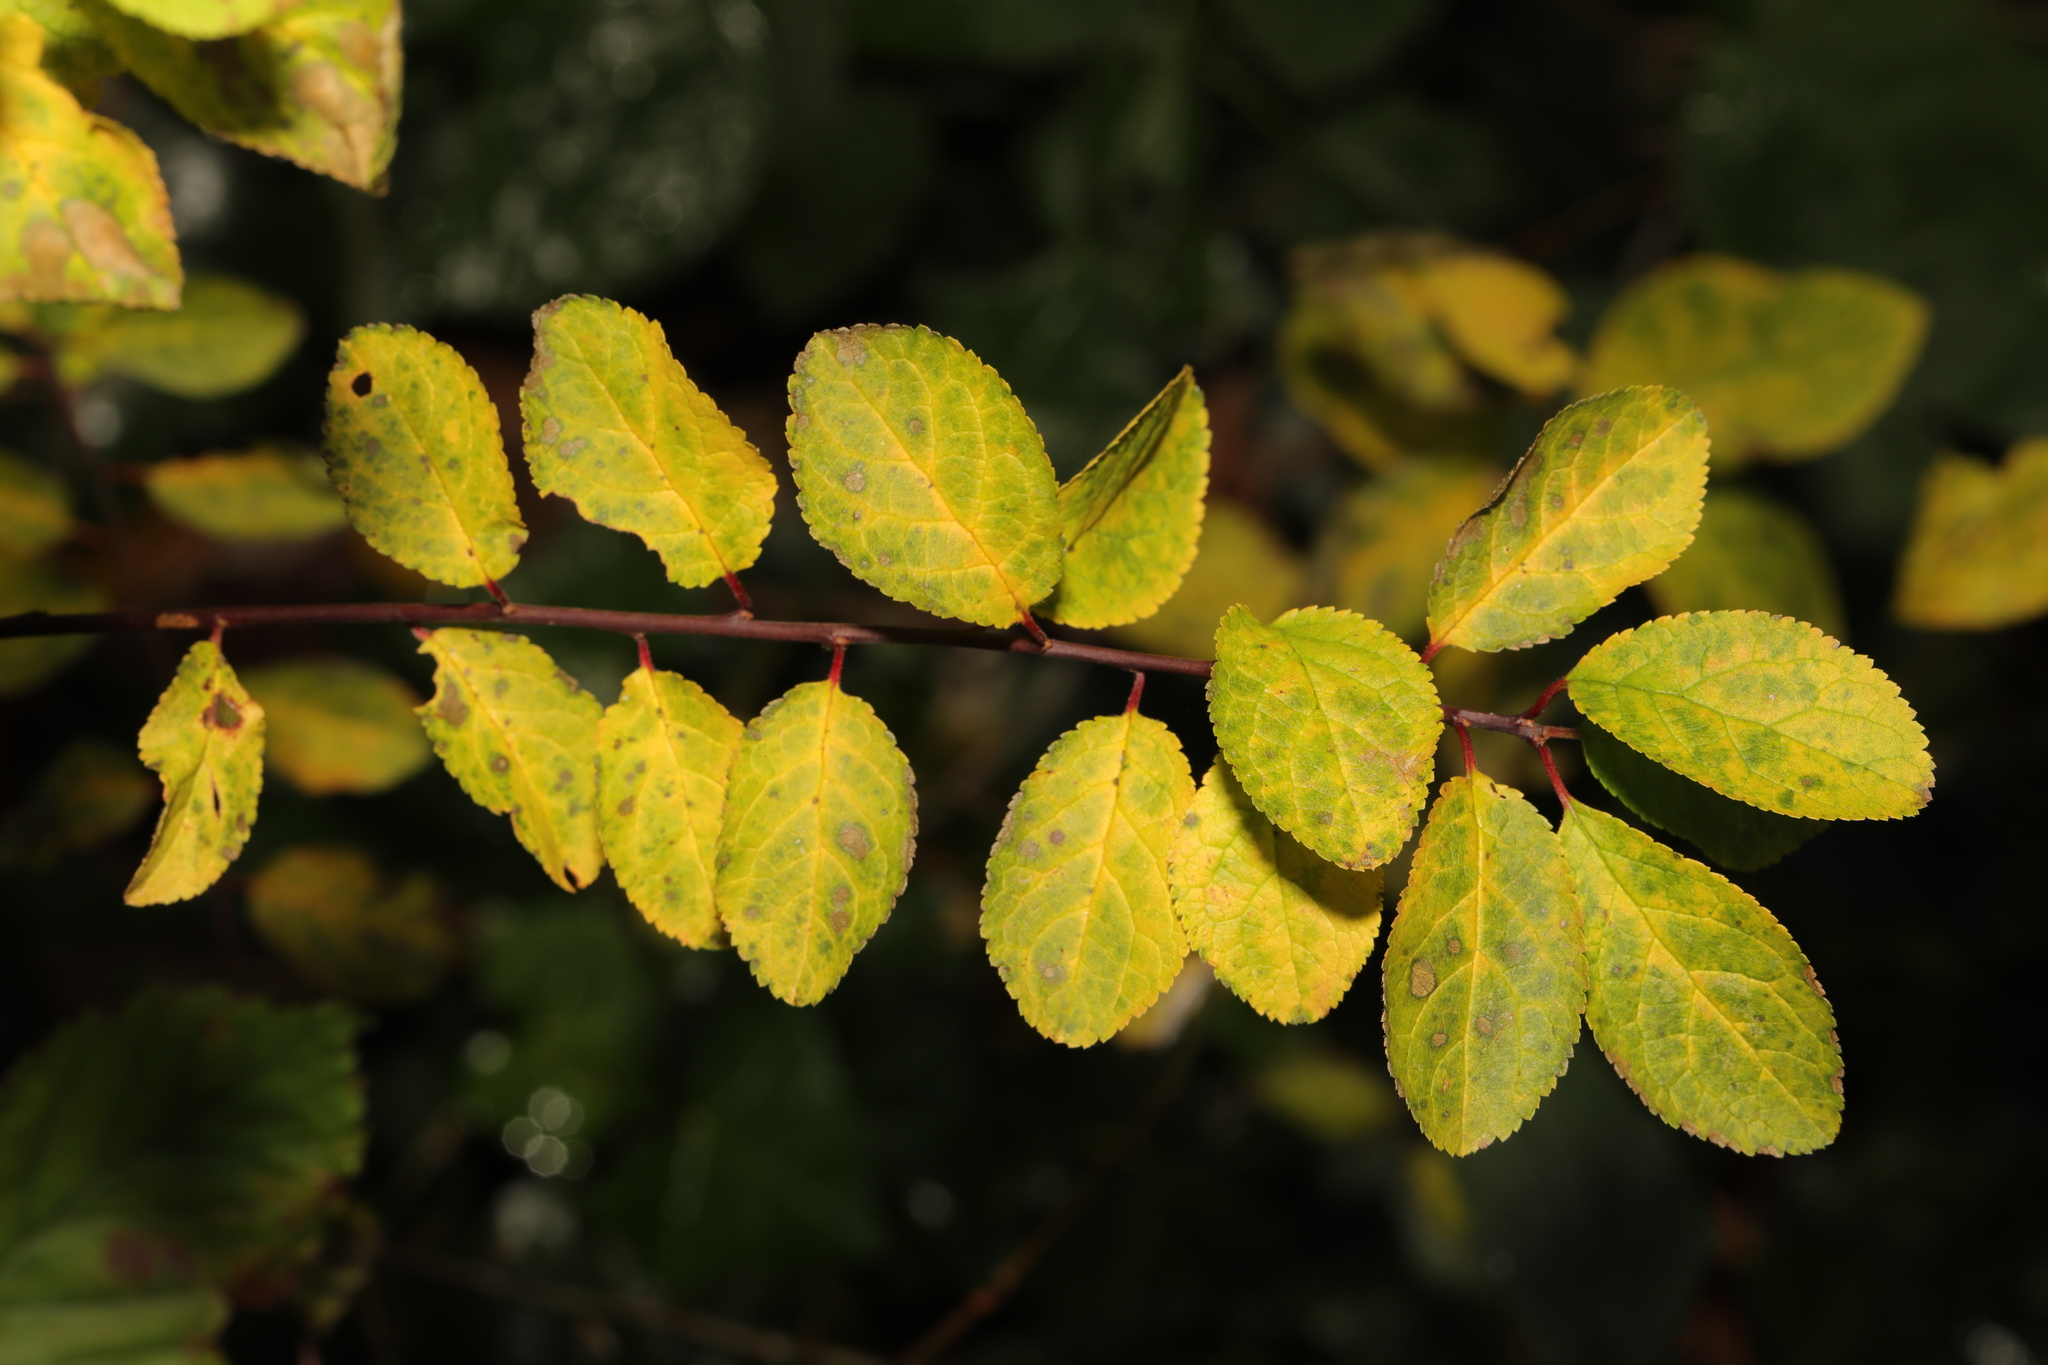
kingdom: Plantae
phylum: Tracheophyta
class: Magnoliopsida
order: Rosales
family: Rosaceae
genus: Prunus
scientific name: Prunus spinosa
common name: Blackthorn
